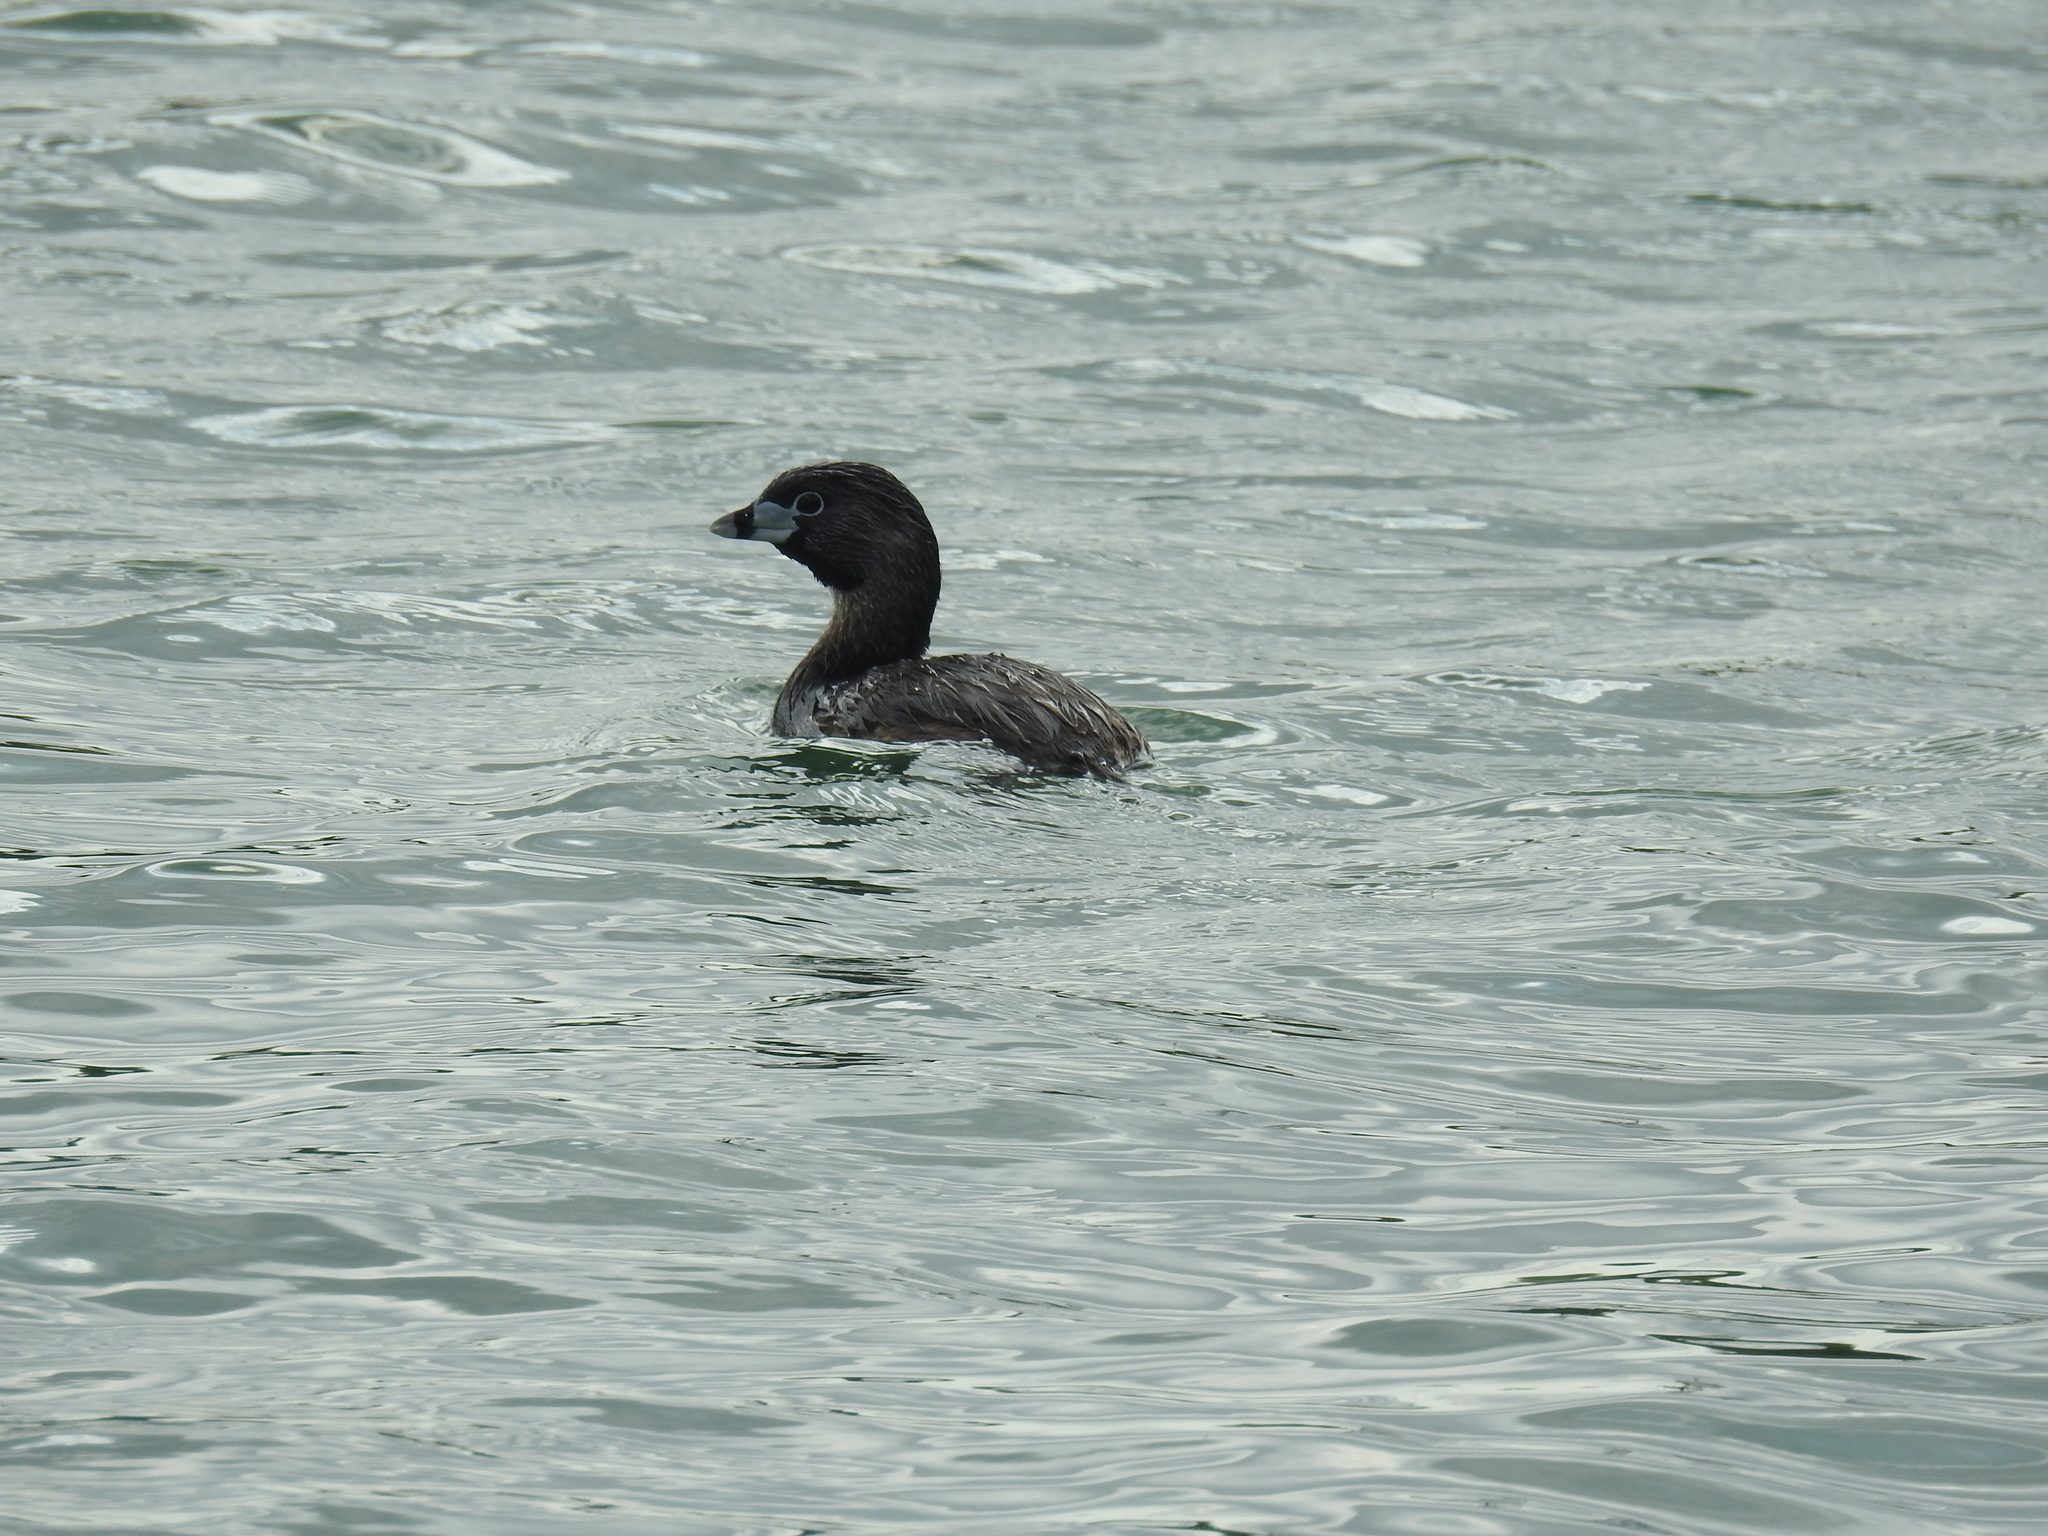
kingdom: Animalia
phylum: Chordata
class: Aves
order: Podicipediformes
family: Podicipedidae
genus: Podilymbus
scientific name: Podilymbus podiceps
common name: Pied-billed grebe
